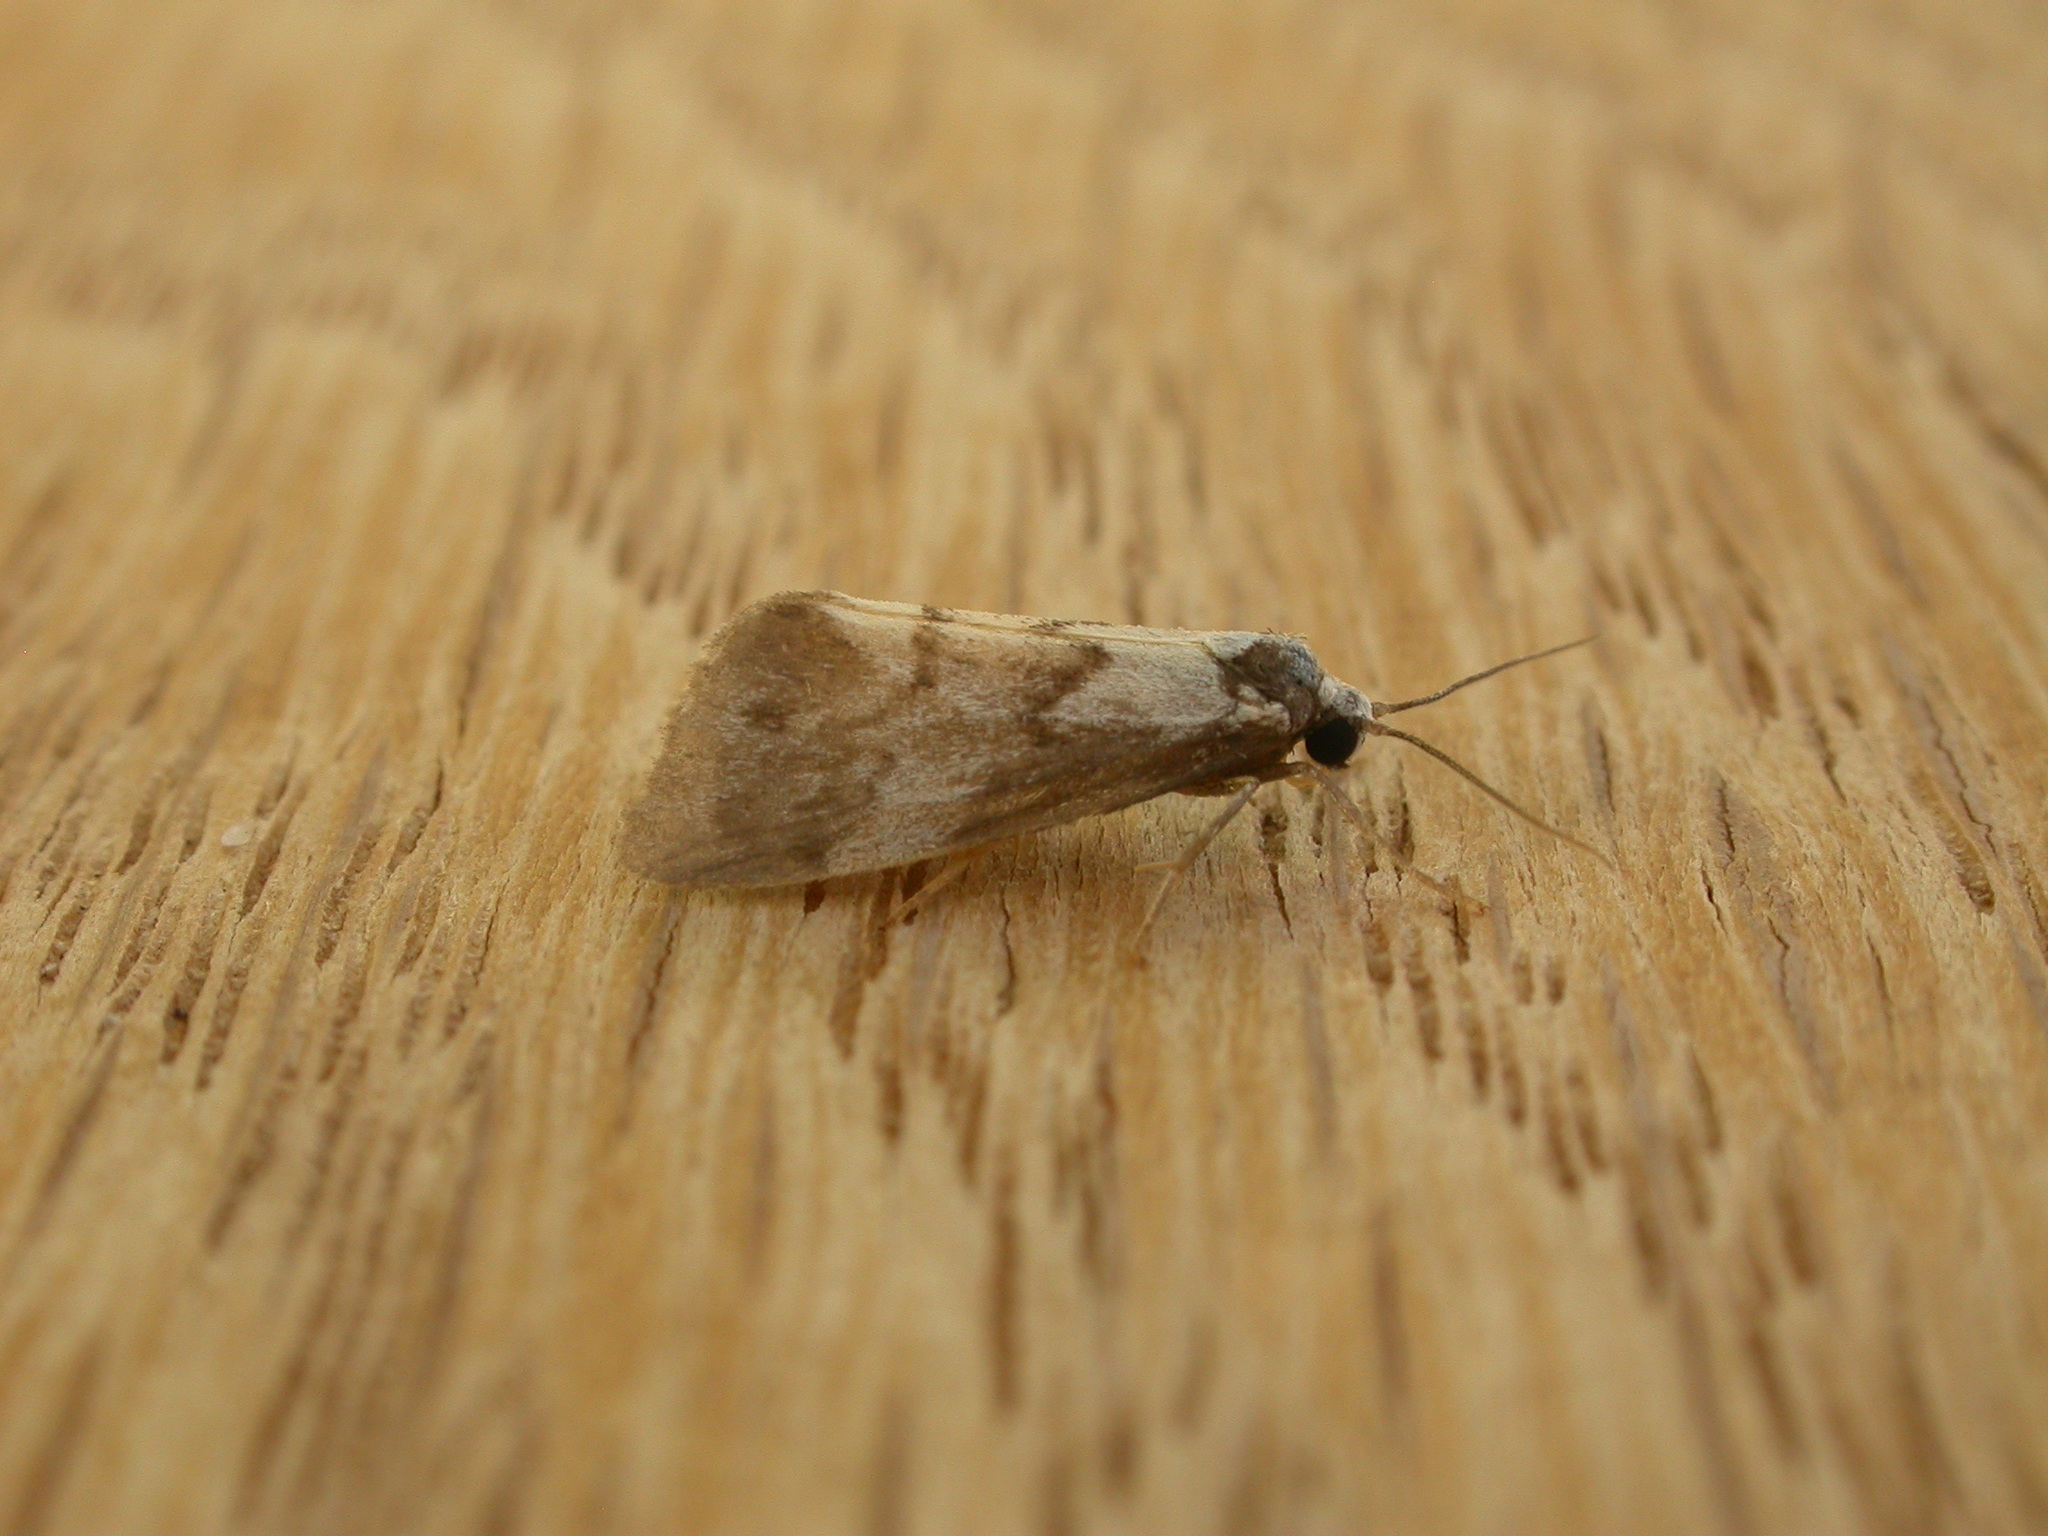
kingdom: Animalia
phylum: Arthropoda
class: Insecta
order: Lepidoptera
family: Erebidae
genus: Philenora
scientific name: Philenora malthaca
